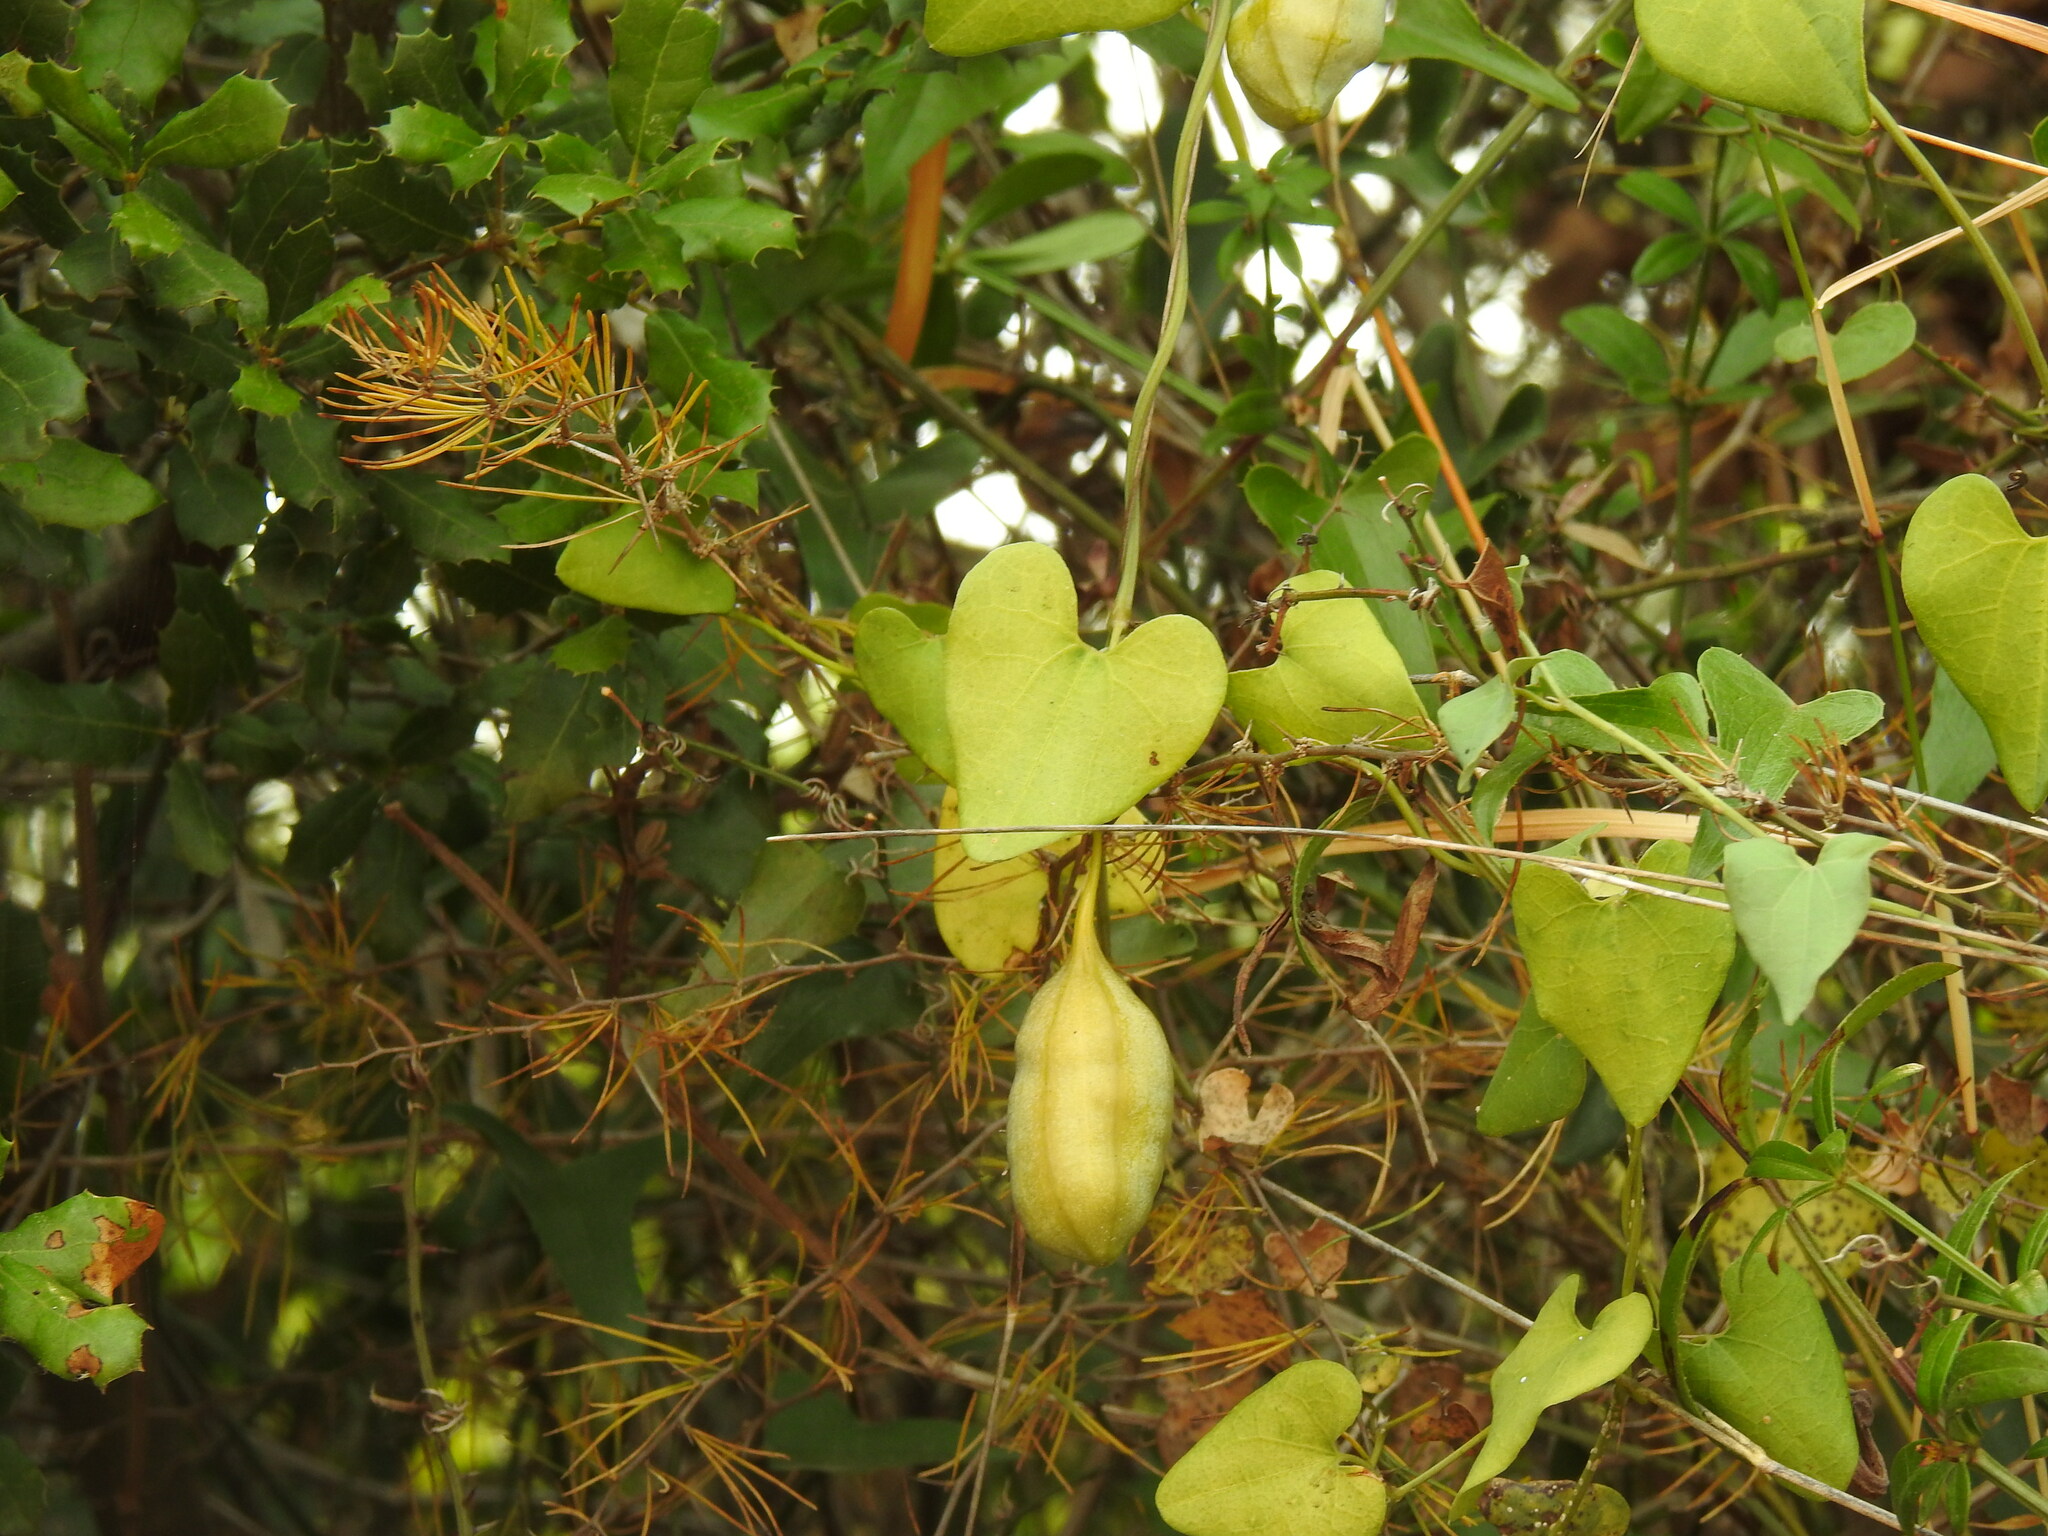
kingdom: Plantae
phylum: Tracheophyta
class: Magnoliopsida
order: Piperales
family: Aristolochiaceae
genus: Aristolochia
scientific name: Aristolochia baetica
